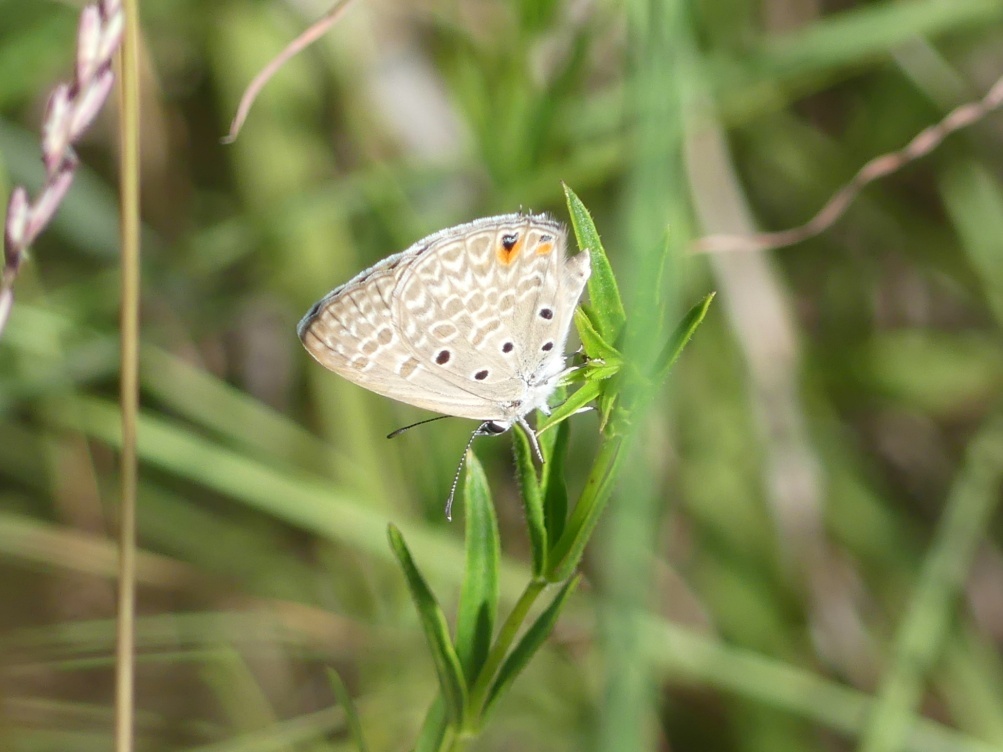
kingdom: Animalia
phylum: Arthropoda
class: Insecta
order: Lepidoptera
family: Lycaenidae
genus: Lepidochrysops
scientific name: Lepidochrysops patricia
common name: Patricia blue
